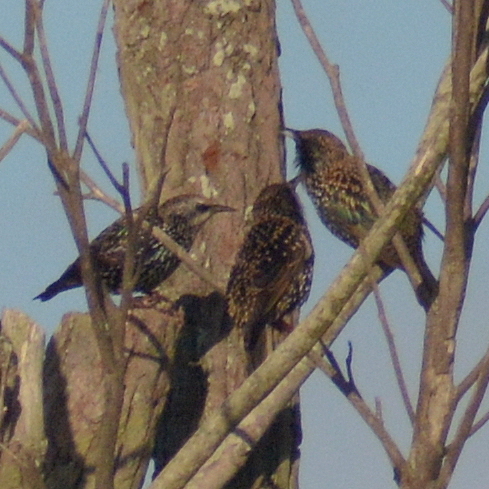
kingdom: Animalia
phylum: Chordata
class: Aves
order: Passeriformes
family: Sturnidae
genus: Sturnus
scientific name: Sturnus vulgaris
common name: Common starling
